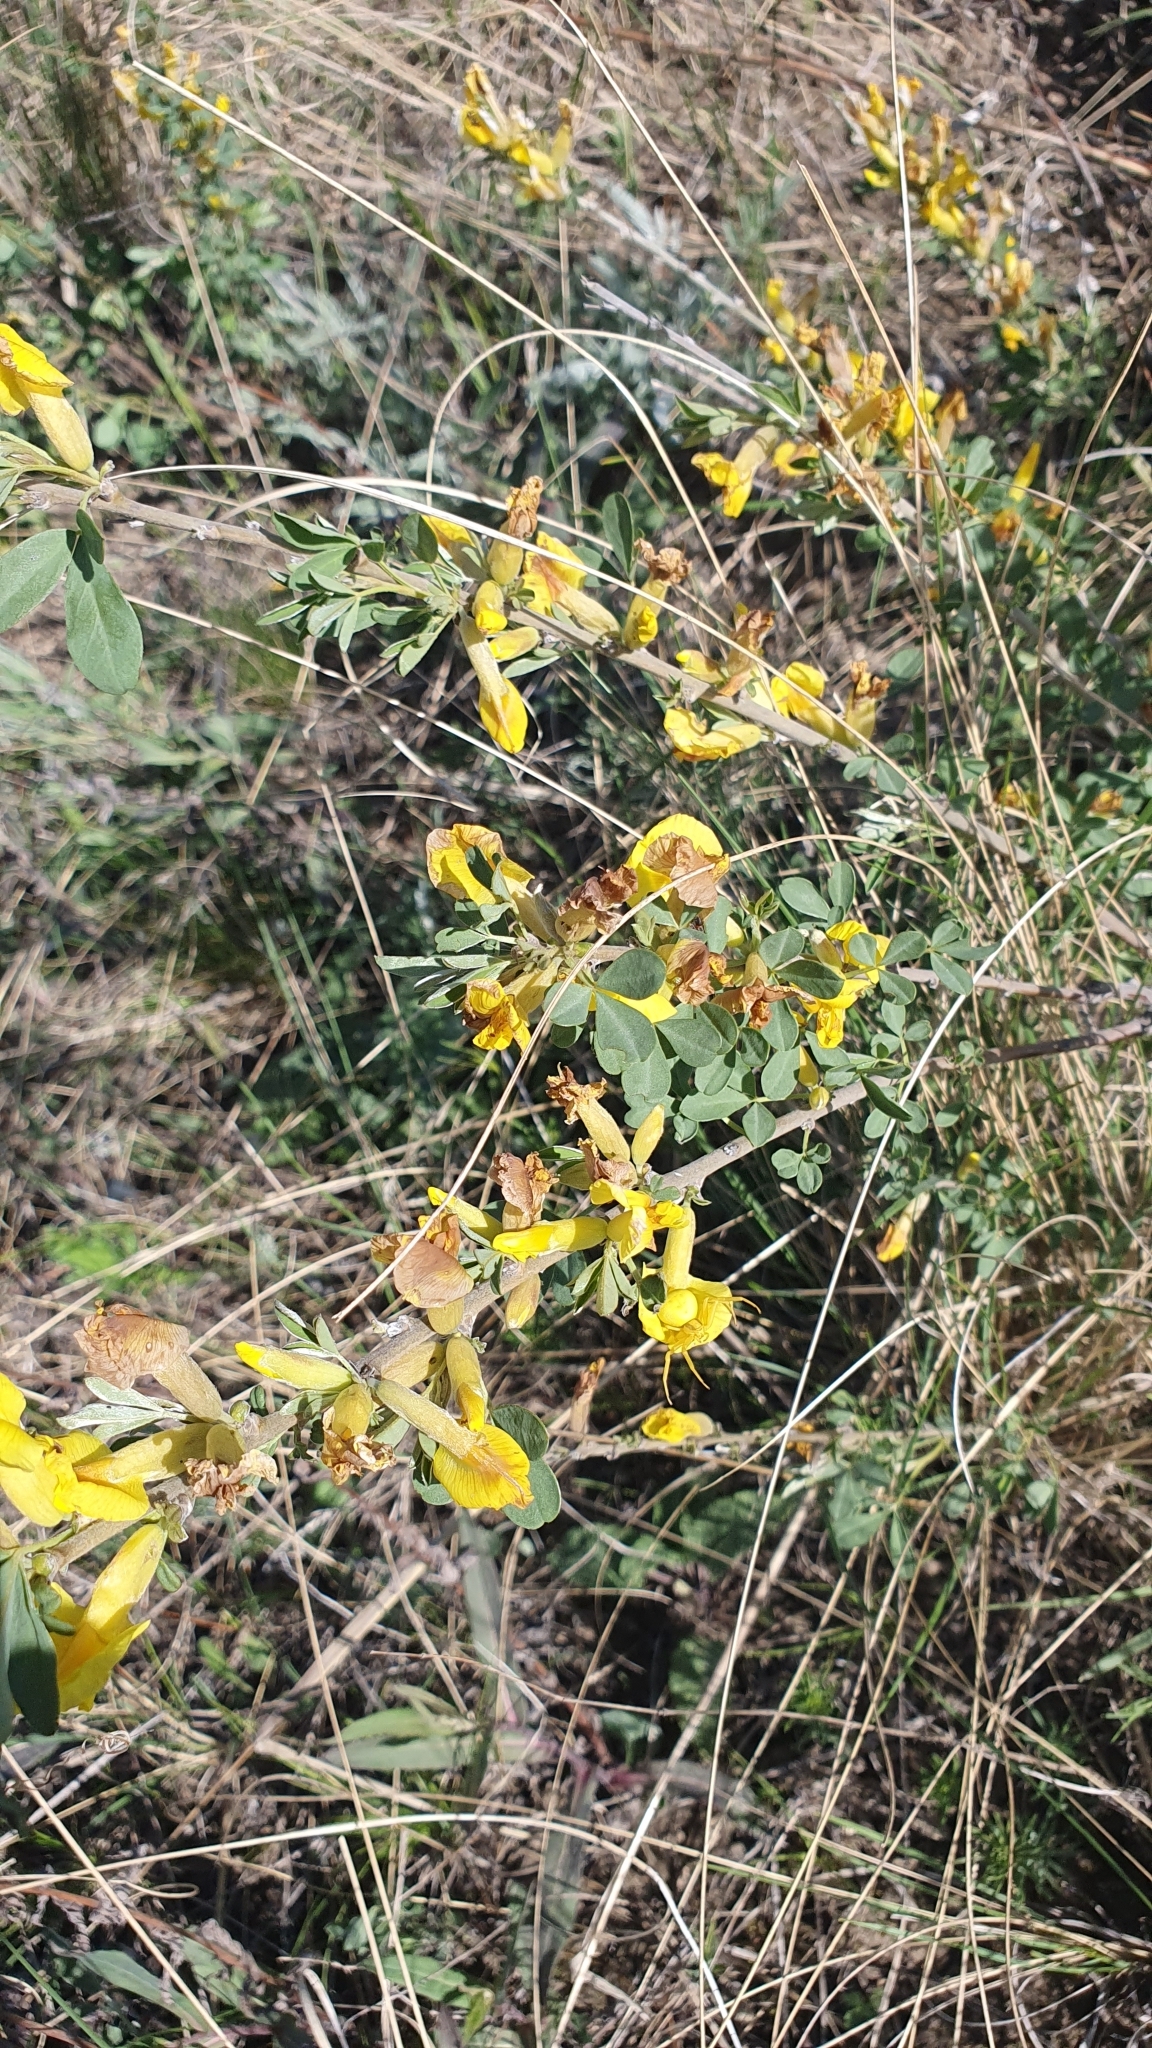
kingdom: Plantae
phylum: Tracheophyta
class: Magnoliopsida
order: Fabales
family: Fabaceae
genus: Chamaecytisus
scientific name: Chamaecytisus ruthenicus
